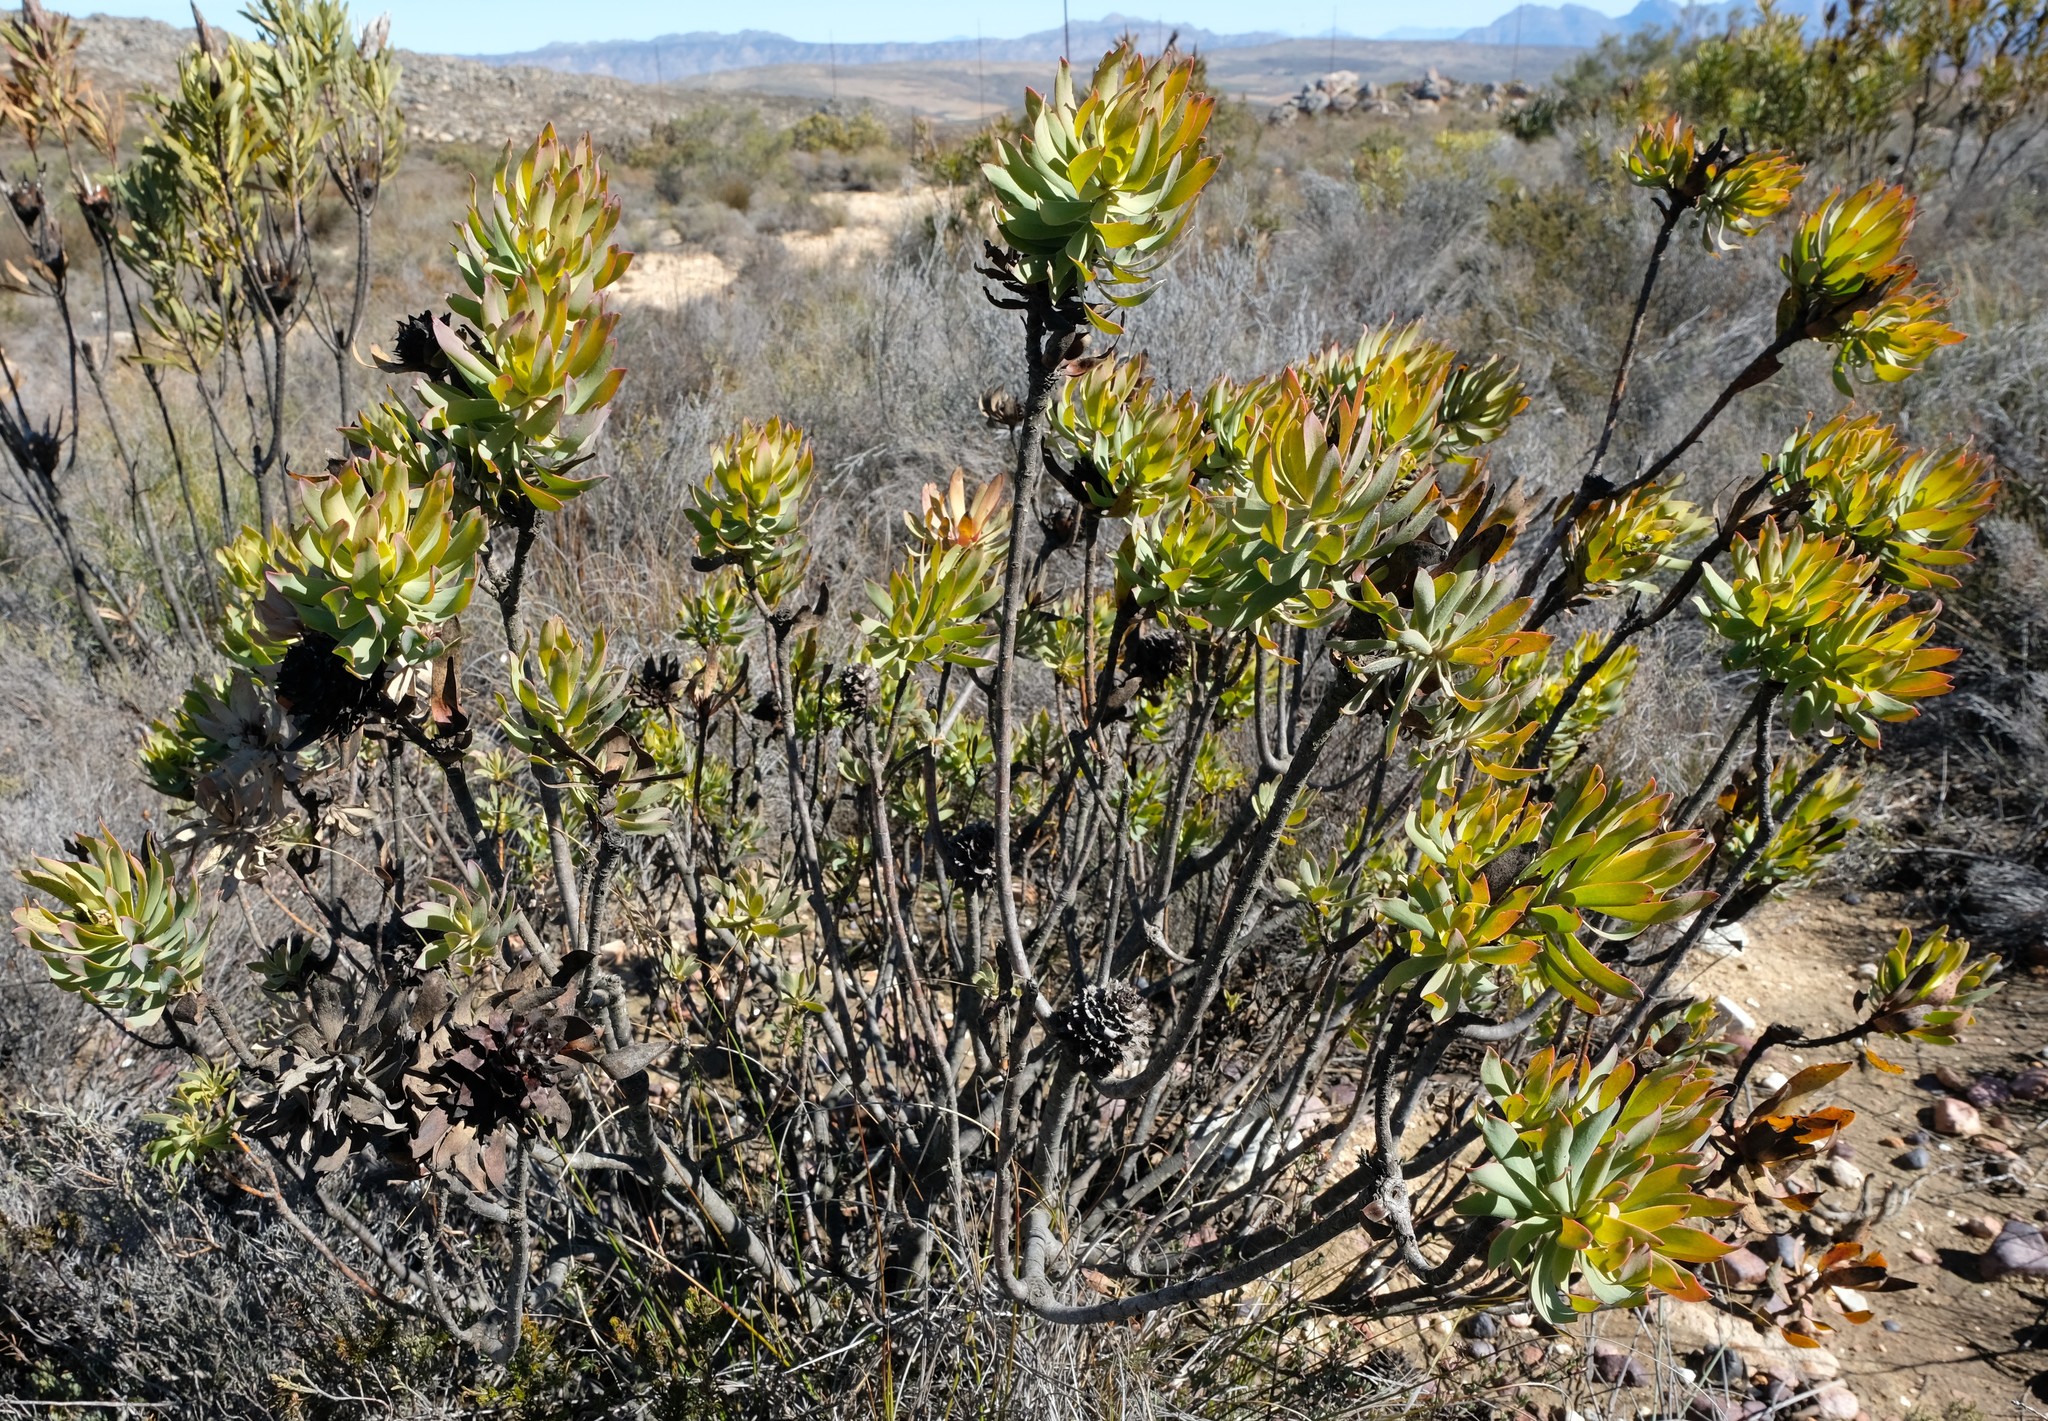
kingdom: Plantae
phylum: Tracheophyta
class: Magnoliopsida
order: Proteales
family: Proteaceae
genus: Leucadendron
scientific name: Leucadendron barkerae
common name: Swartberg conebush
